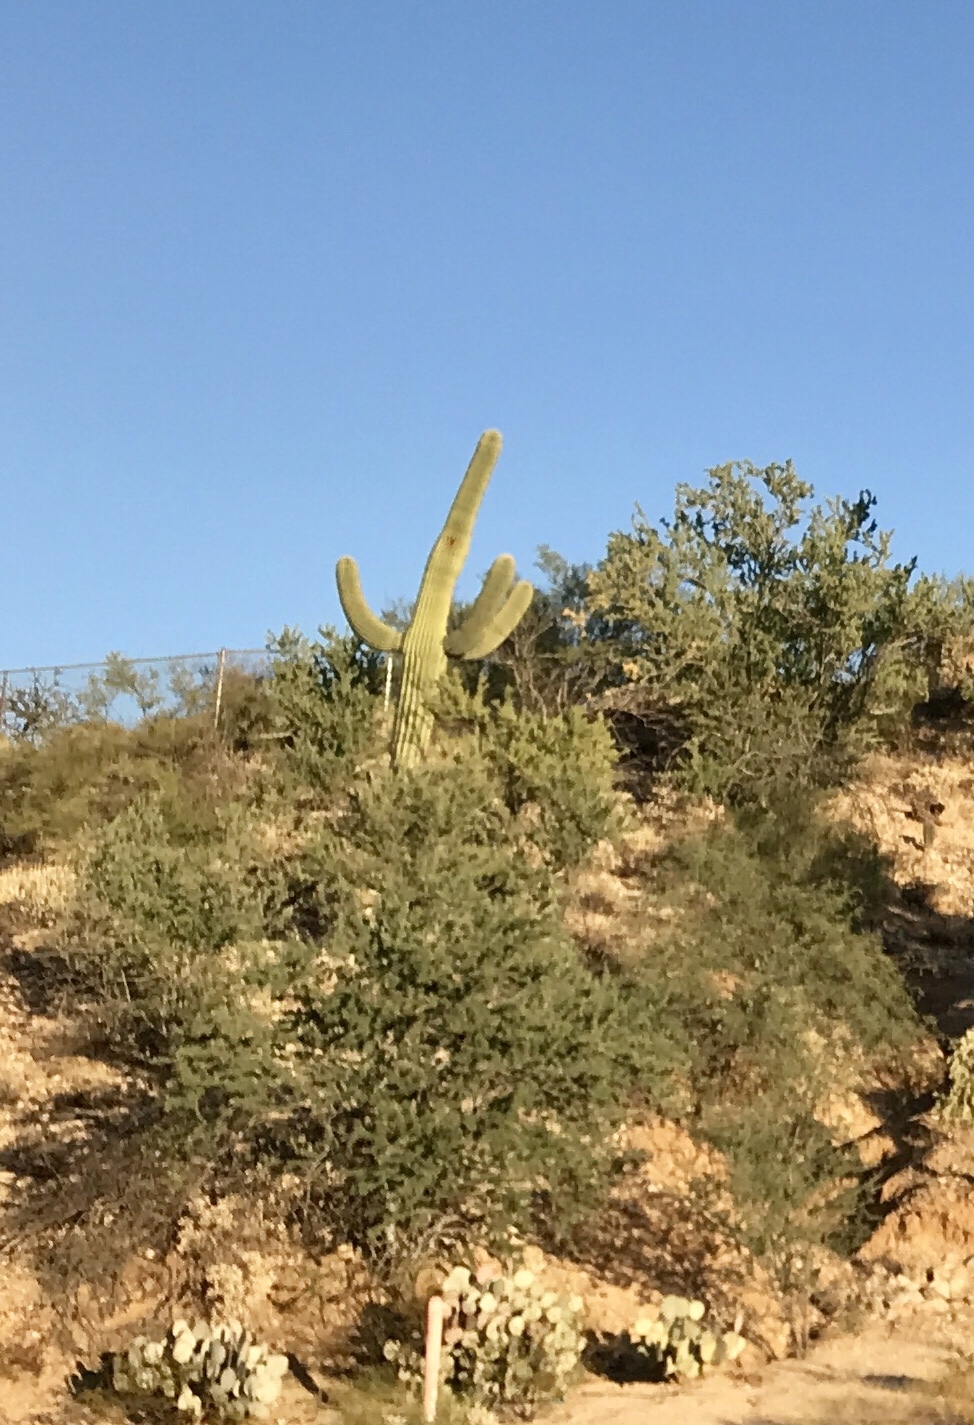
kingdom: Plantae
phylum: Tracheophyta
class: Magnoliopsida
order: Caryophyllales
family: Cactaceae
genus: Carnegiea
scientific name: Carnegiea gigantea
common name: Saguaro
